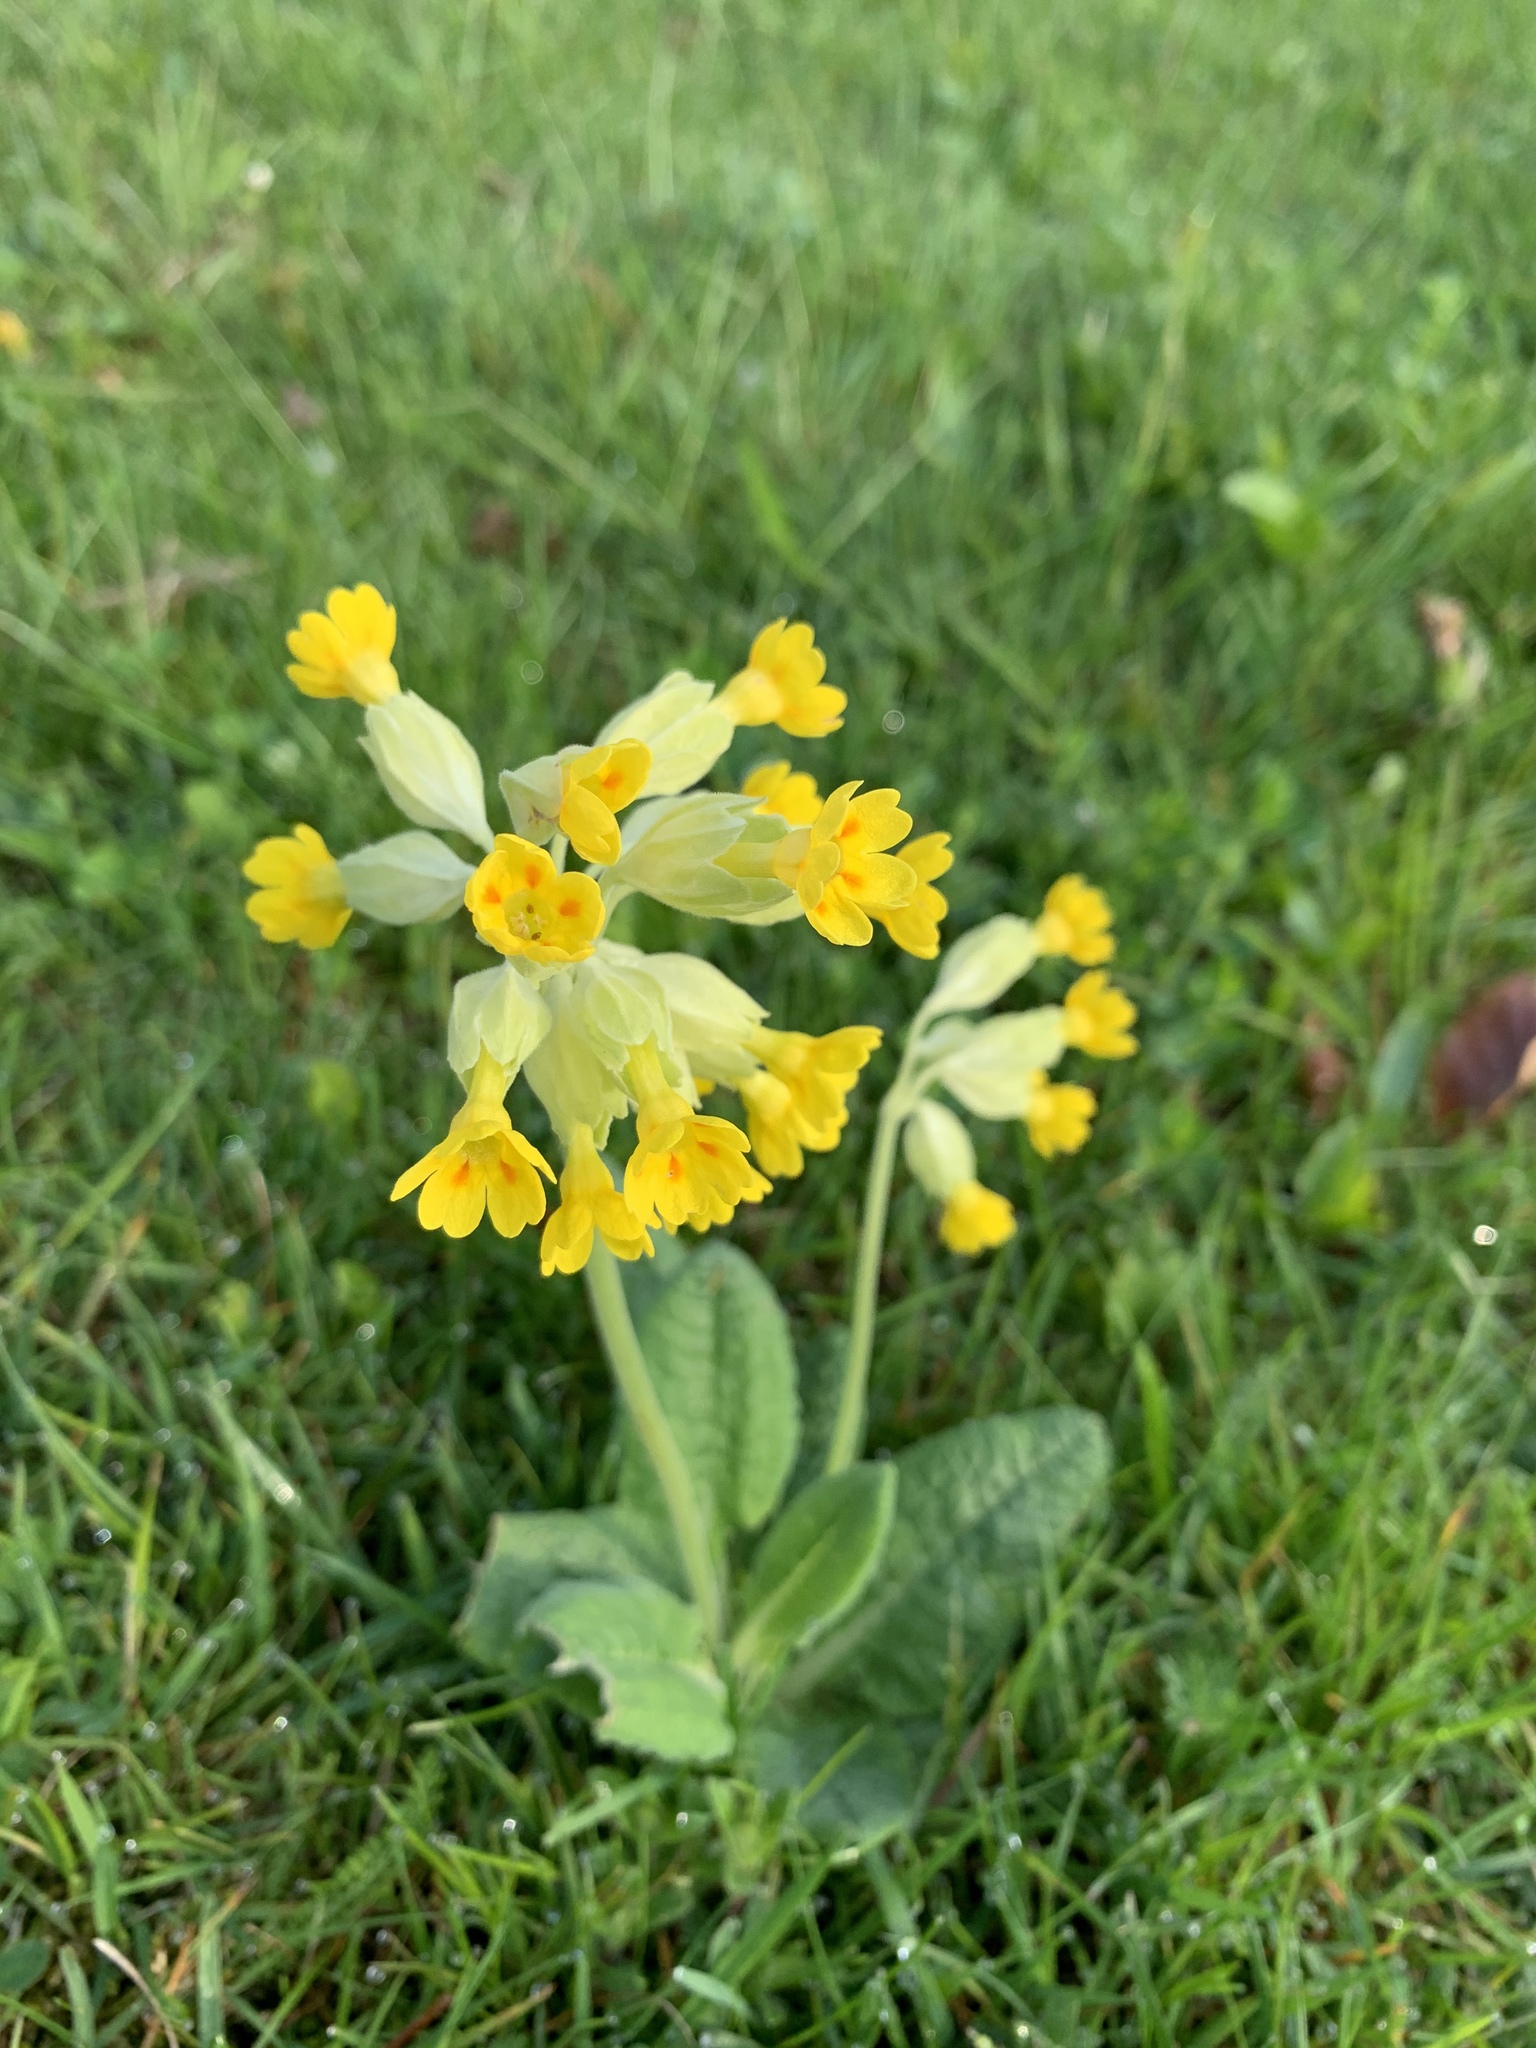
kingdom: Plantae
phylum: Tracheophyta
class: Magnoliopsida
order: Ericales
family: Primulaceae
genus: Primula
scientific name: Primula veris
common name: Cowslip
